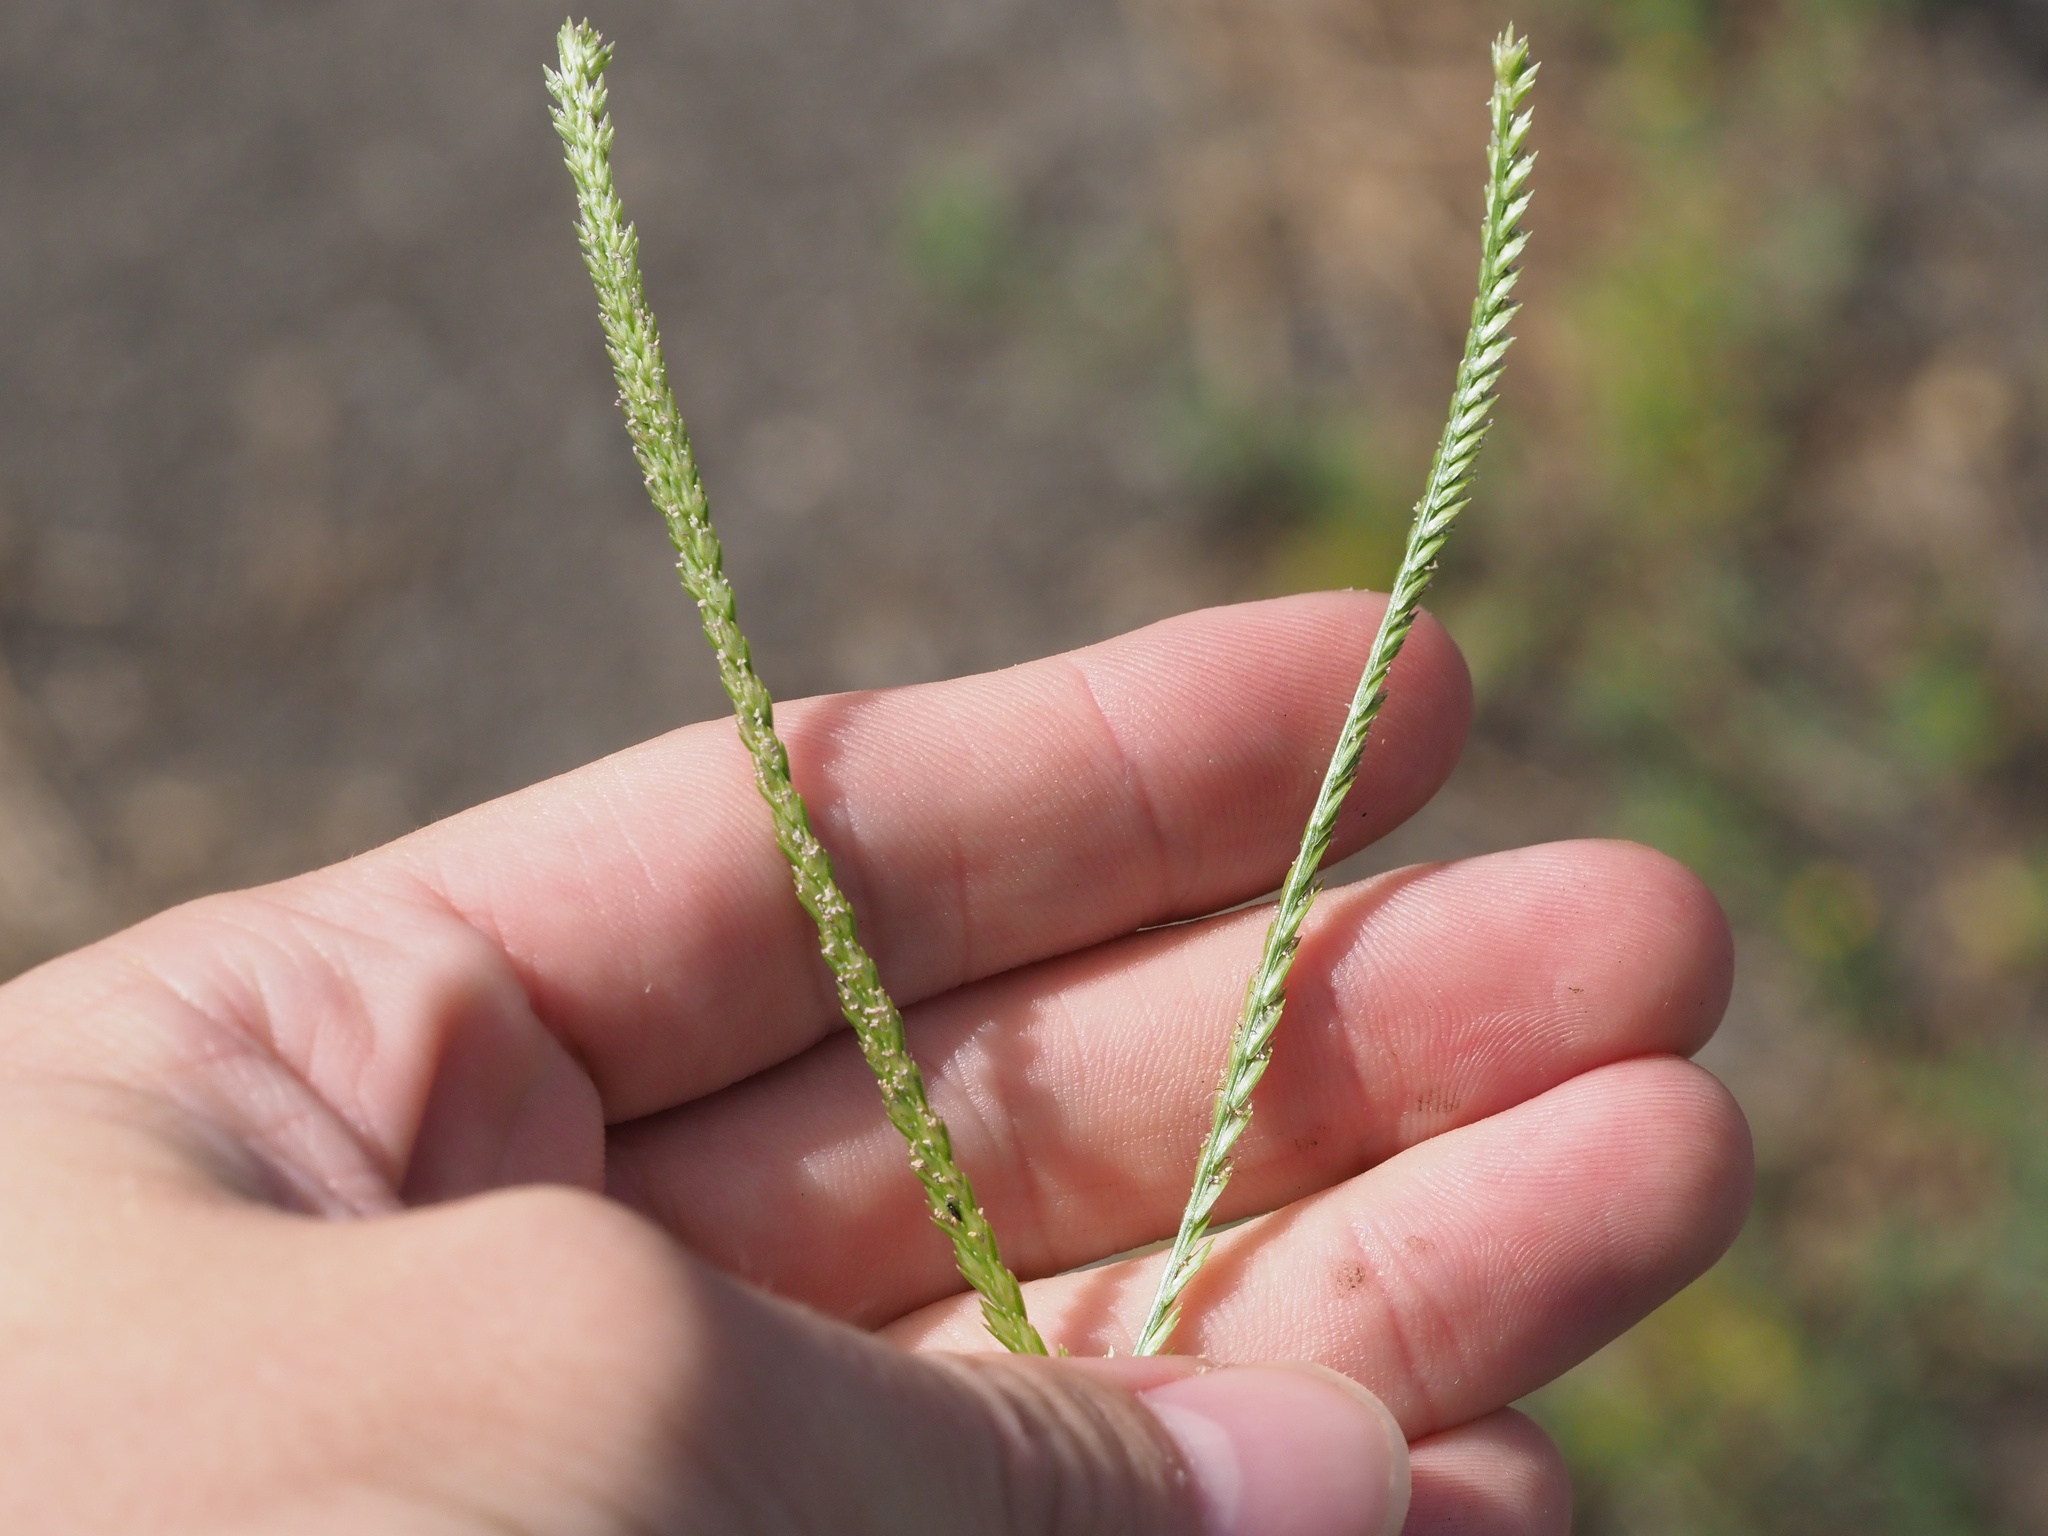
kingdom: Plantae
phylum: Tracheophyta
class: Liliopsida
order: Poales
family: Poaceae
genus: Eleusine
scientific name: Eleusine indica
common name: Yard-grass
